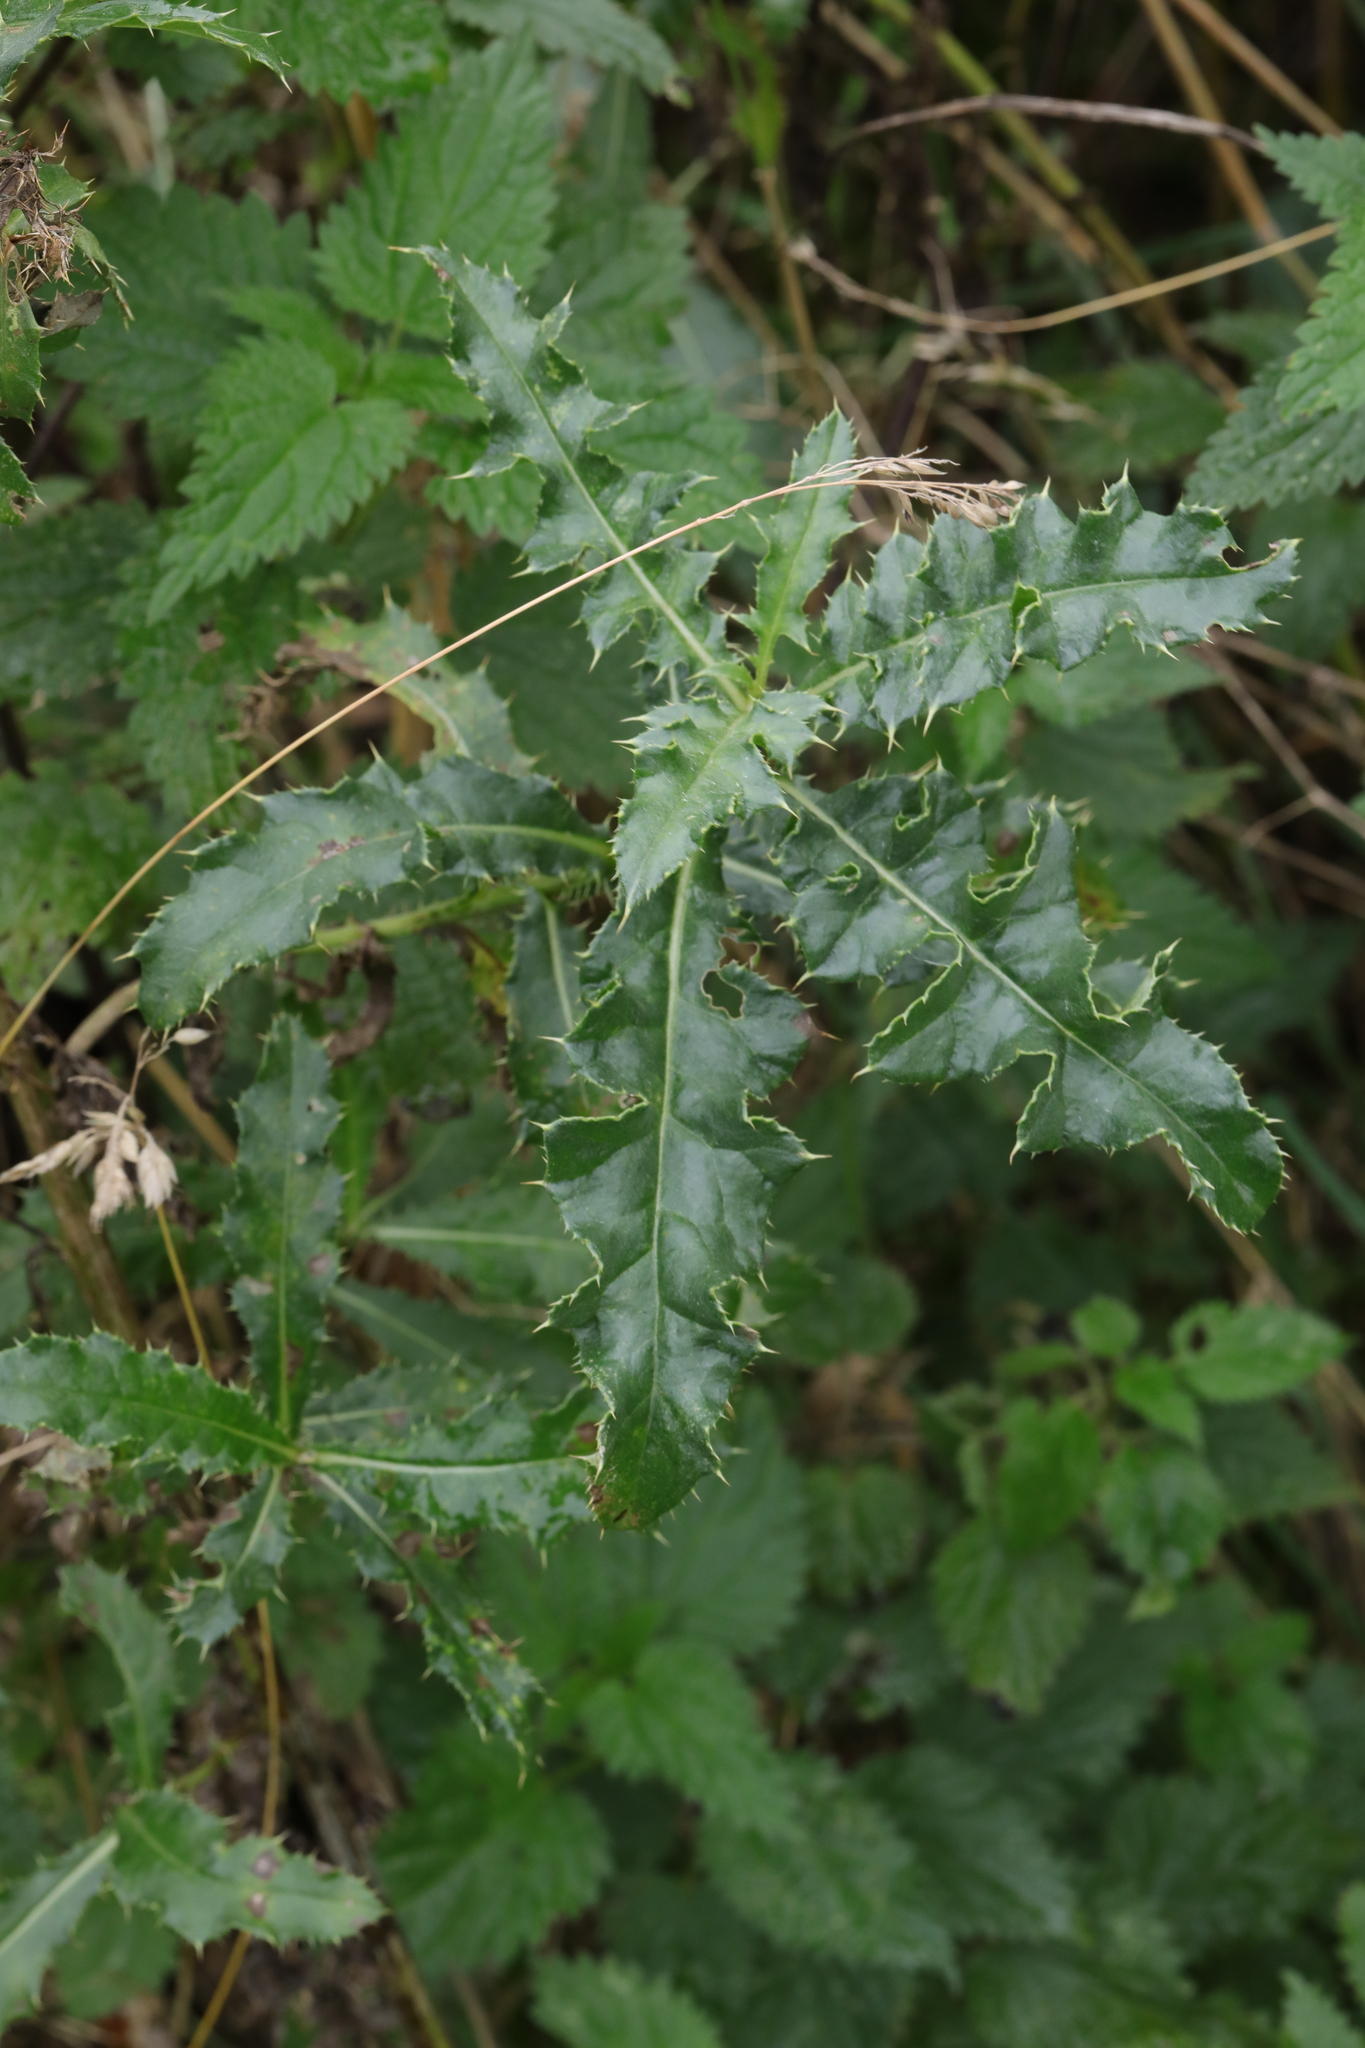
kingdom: Plantae
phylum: Tracheophyta
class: Magnoliopsida
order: Asterales
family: Asteraceae
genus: Cirsium
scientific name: Cirsium arvense
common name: Creeping thistle
